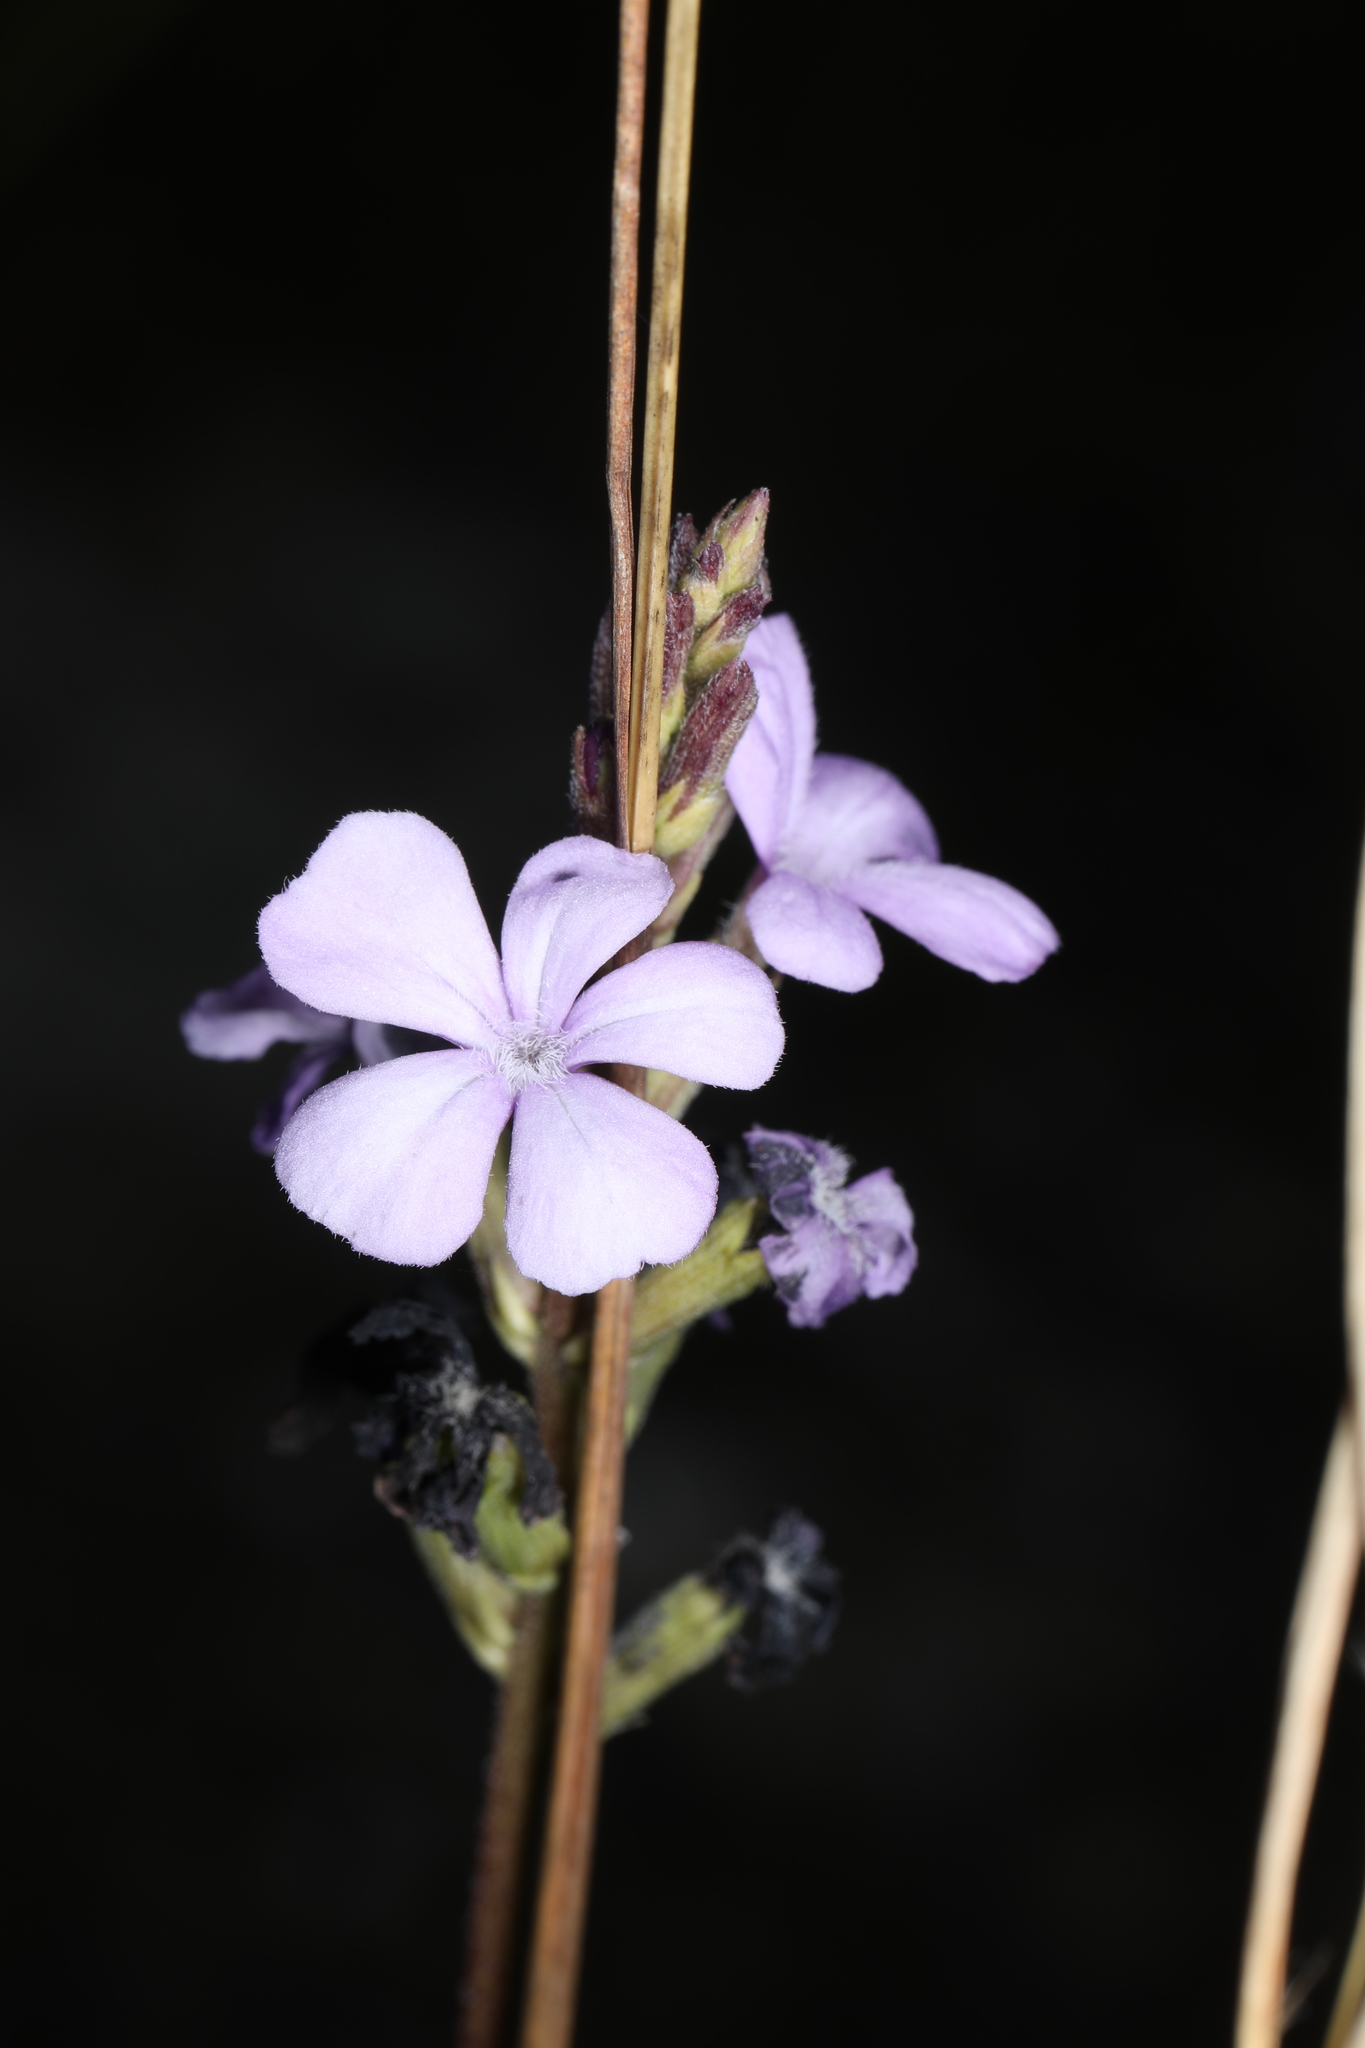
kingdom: Plantae
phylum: Tracheophyta
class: Magnoliopsida
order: Lamiales
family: Orobanchaceae
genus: Buchnera
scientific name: Buchnera floridana
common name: Florida bluehearts
